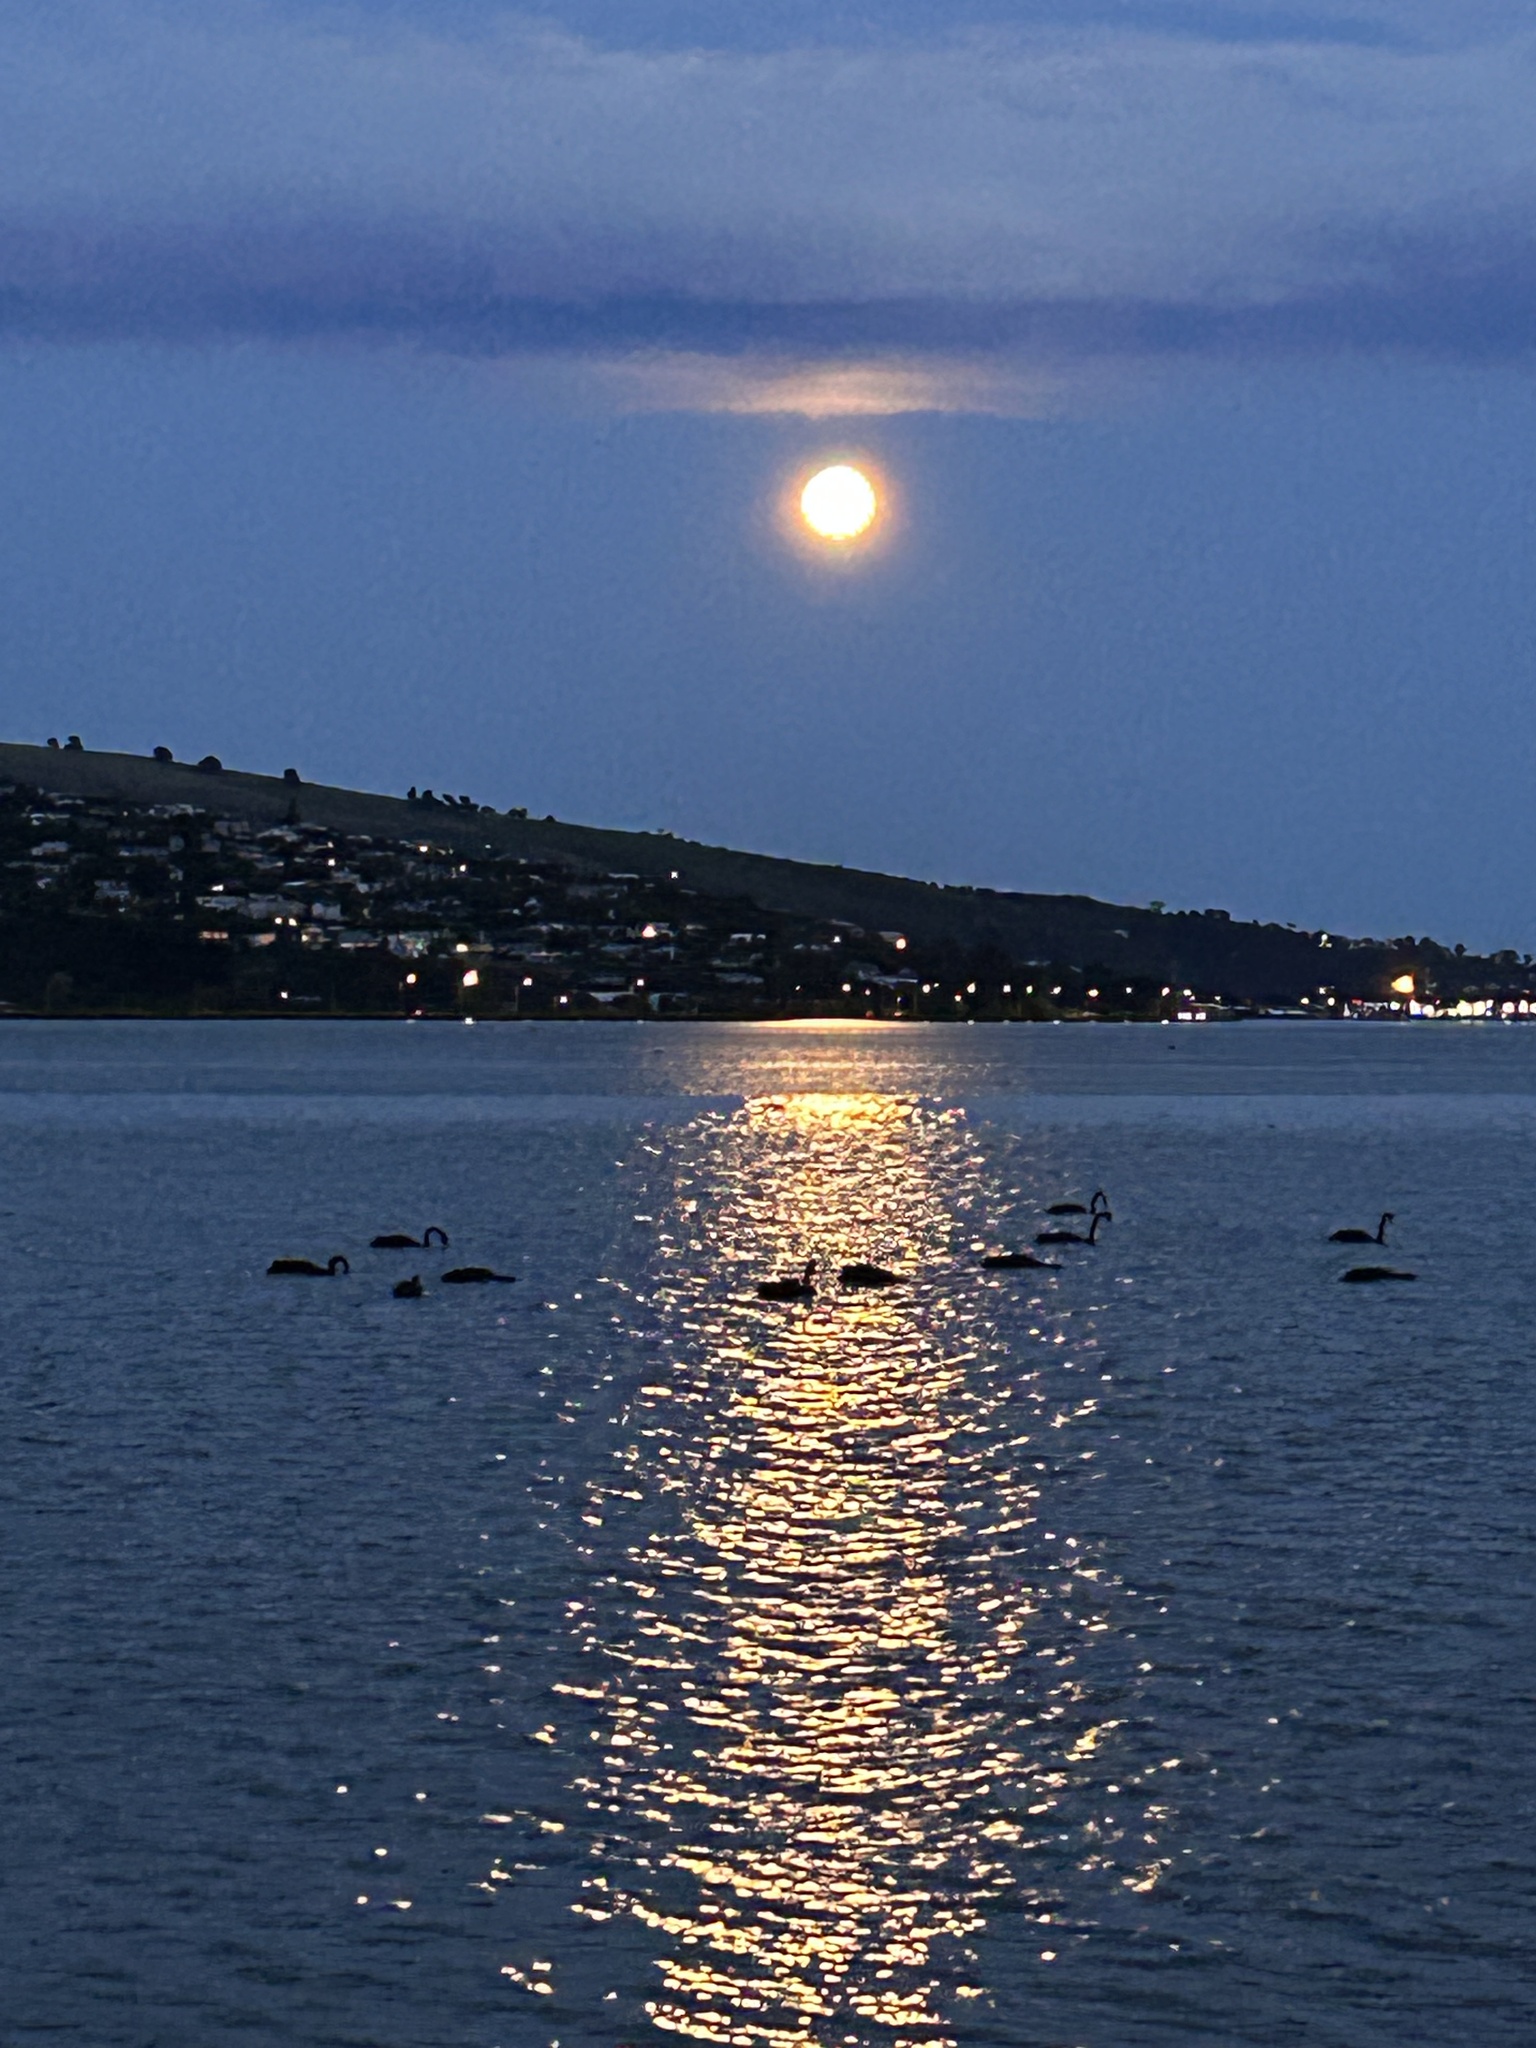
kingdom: Animalia
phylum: Chordata
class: Aves
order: Anseriformes
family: Anatidae
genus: Cygnus
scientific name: Cygnus atratus
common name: Black swan
